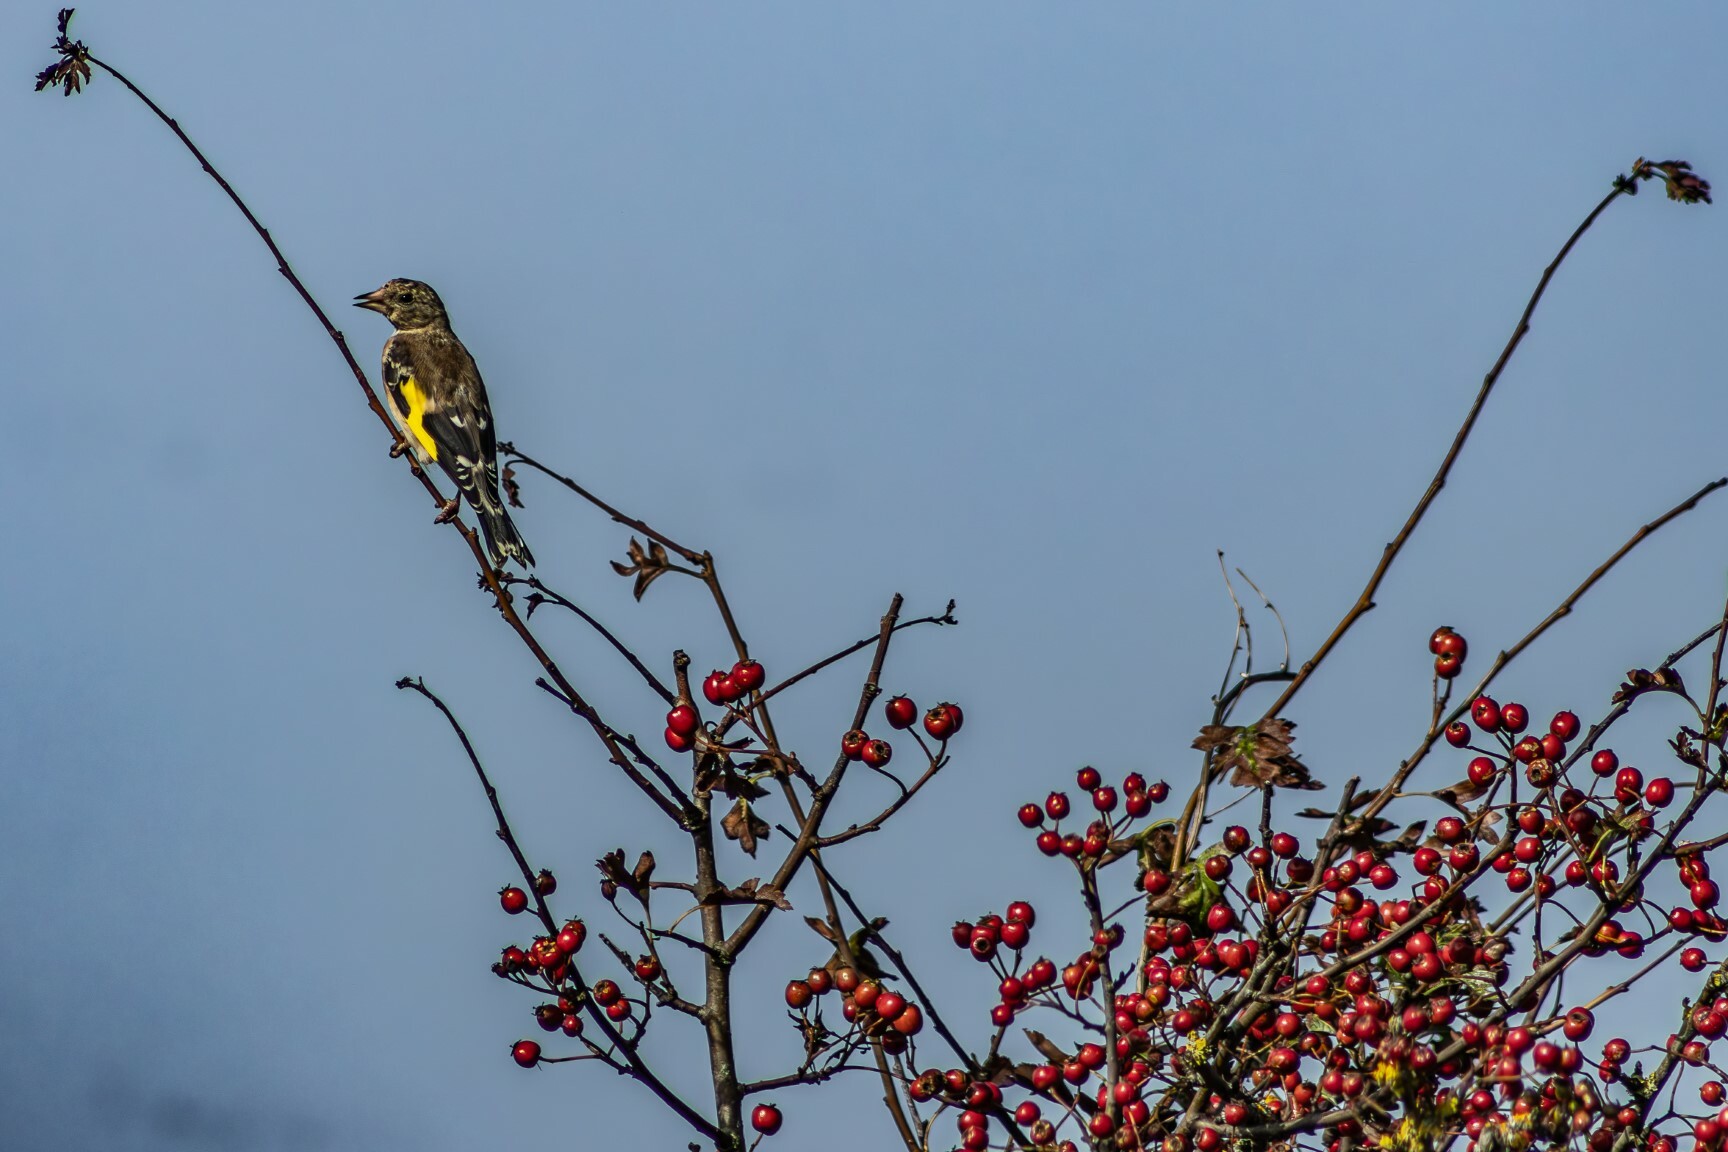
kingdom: Animalia
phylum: Chordata
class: Aves
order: Passeriformes
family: Fringillidae
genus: Carduelis
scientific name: Carduelis carduelis
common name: European goldfinch
